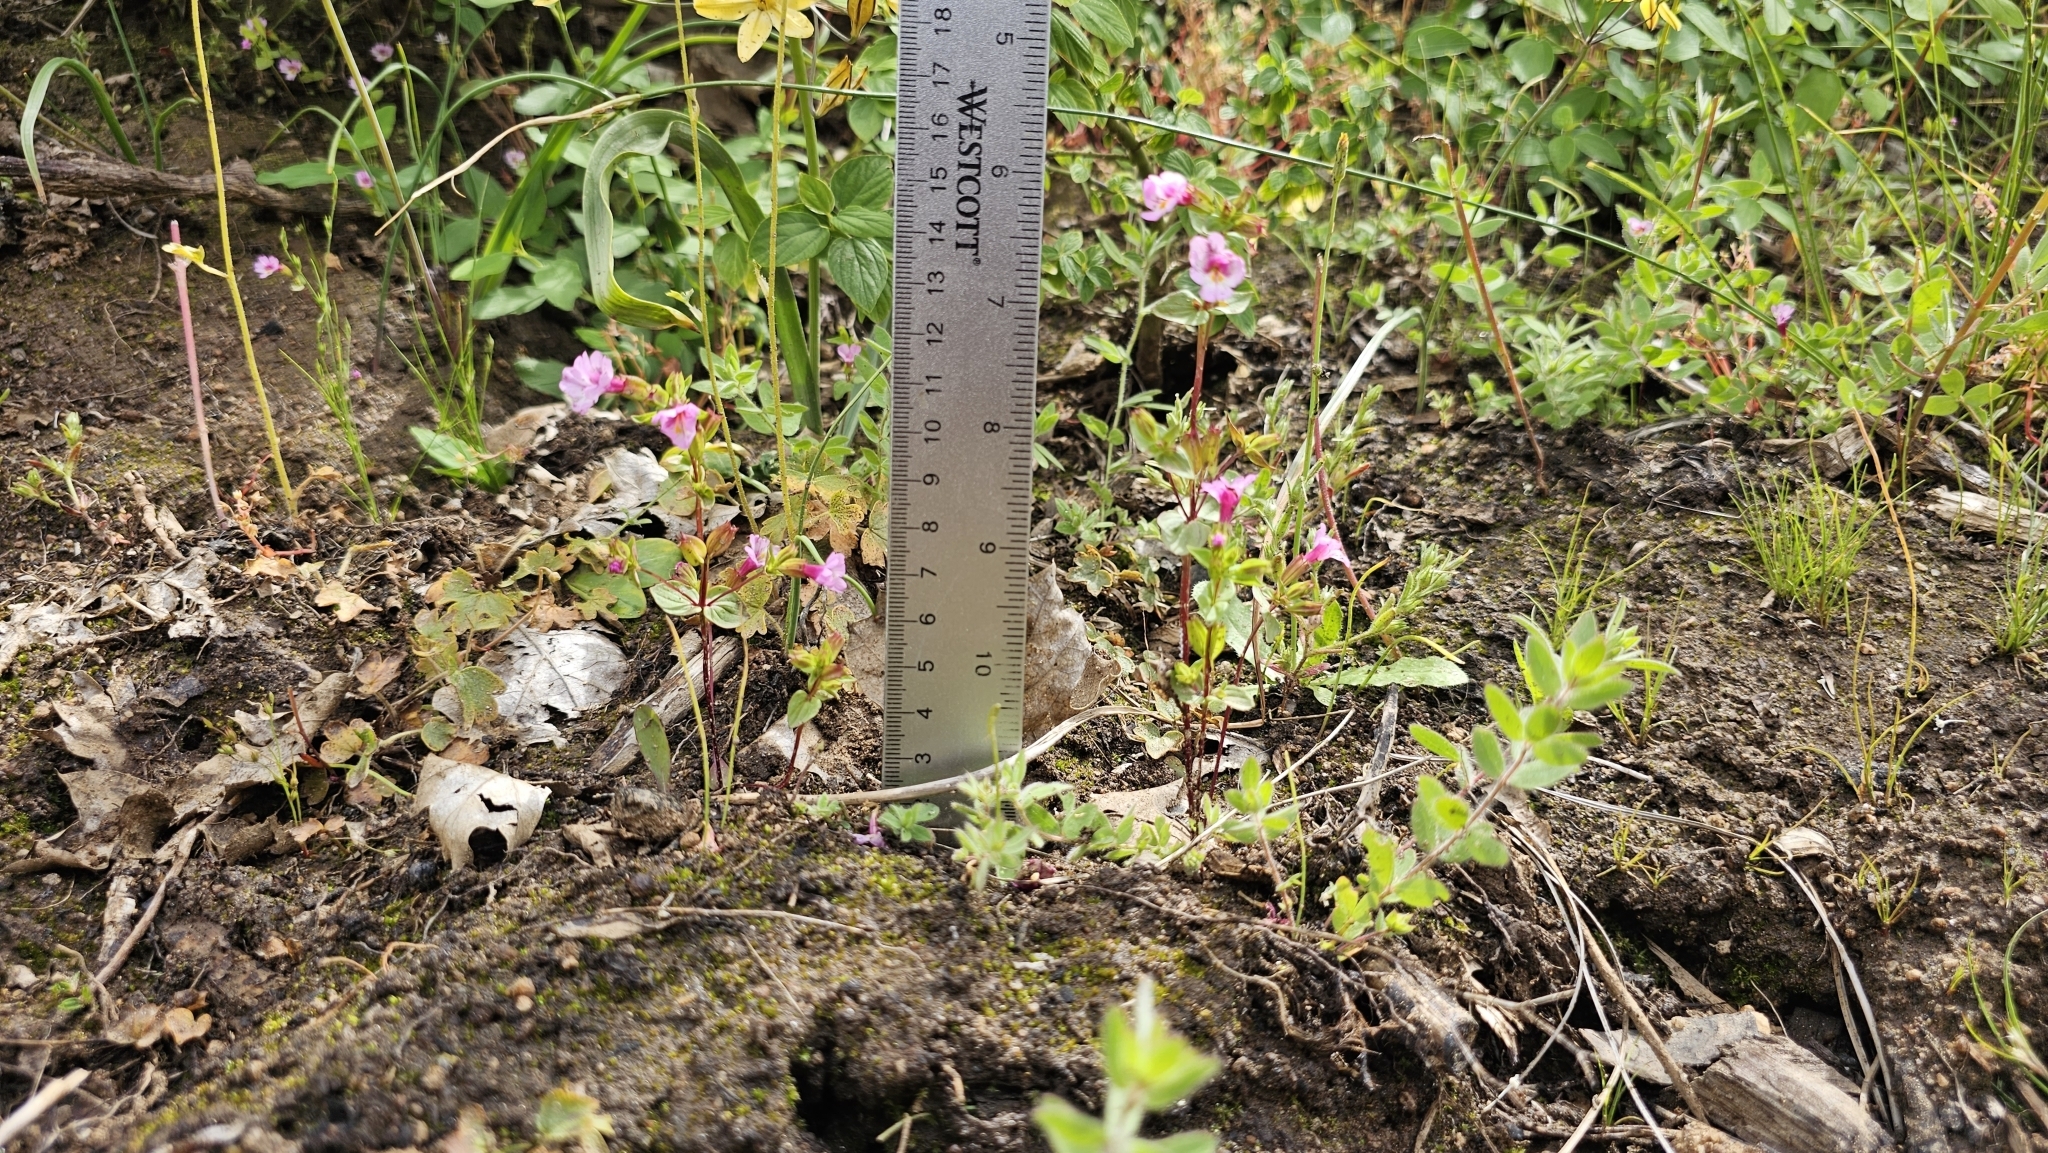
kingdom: Plantae
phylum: Tracheophyta
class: Magnoliopsida
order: Lamiales
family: Phrymaceae
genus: Erythranthe
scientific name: Erythranthe acutidens
